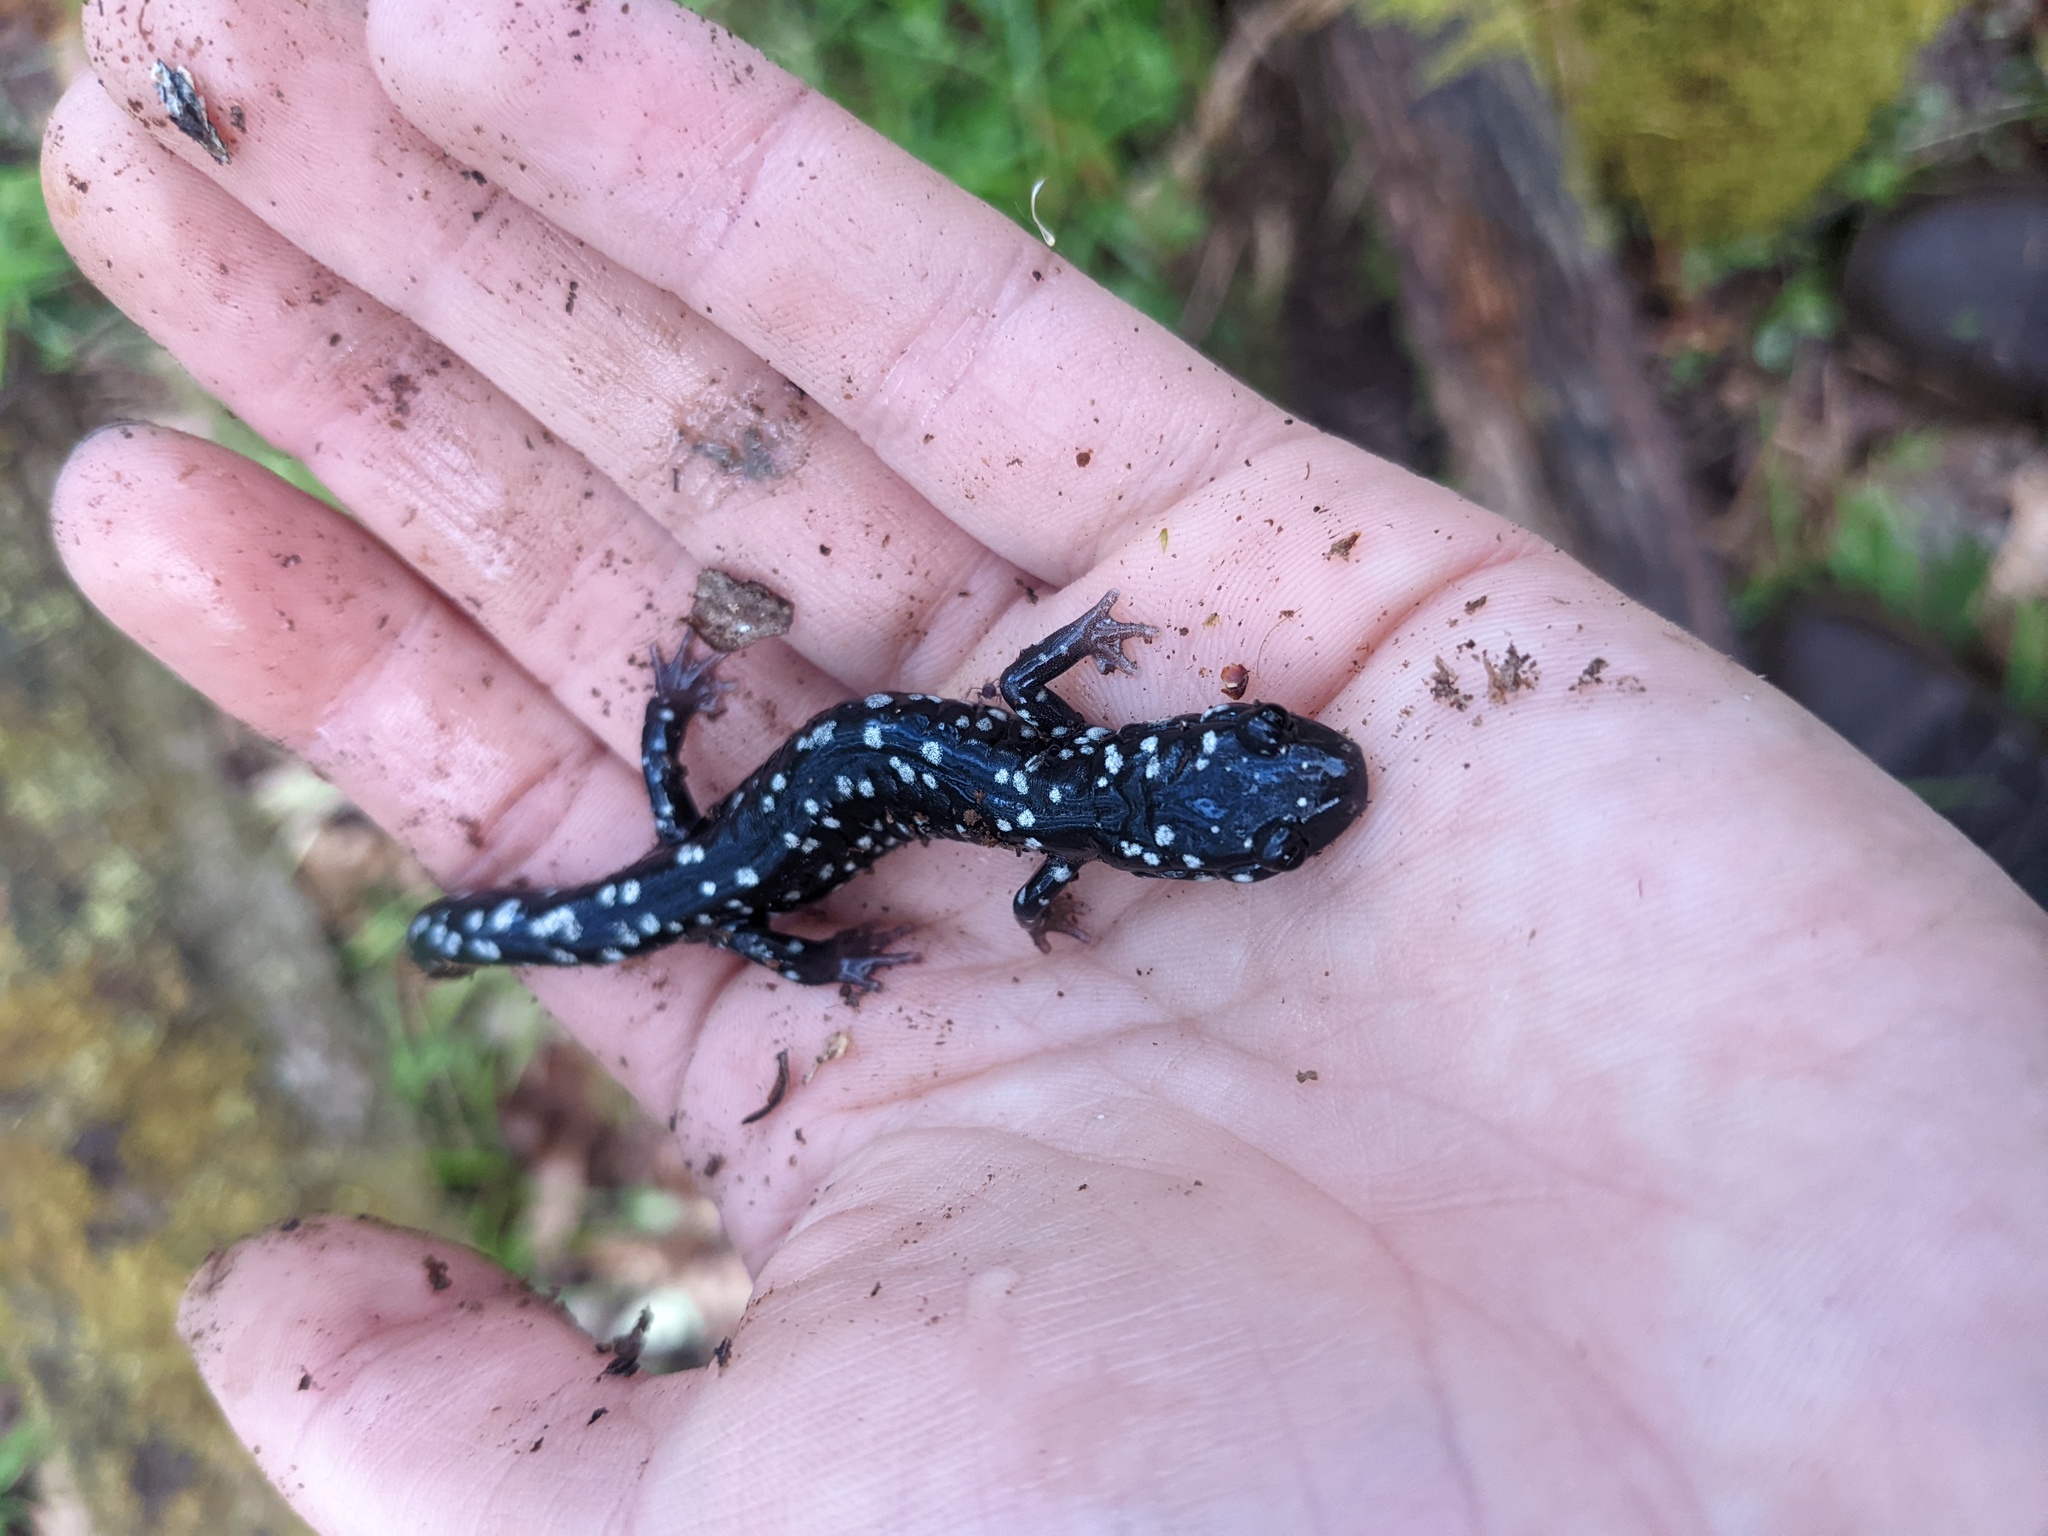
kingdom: Animalia
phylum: Chordata
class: Amphibia
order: Caudata
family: Plethodontidae
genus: Plethodon
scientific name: Plethodon glutinosus
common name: Northern slimy salamander
